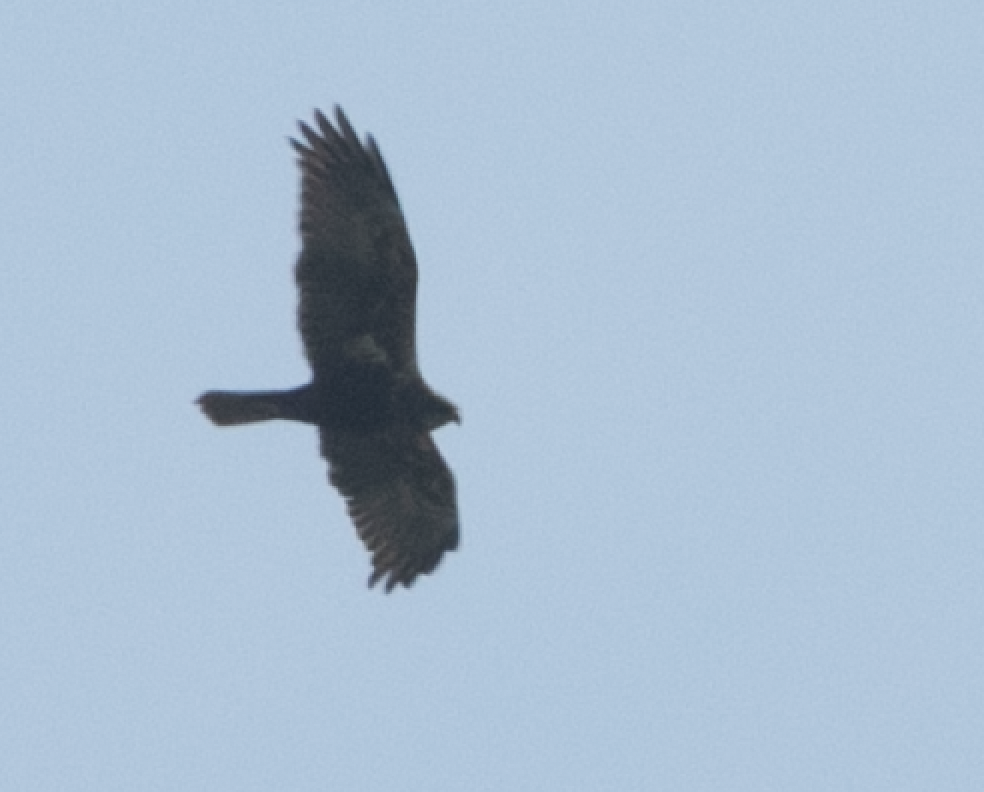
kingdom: Animalia
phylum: Chordata
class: Aves
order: Accipitriformes
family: Accipitridae
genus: Circus
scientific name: Circus aeruginosus
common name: Western marsh harrier
